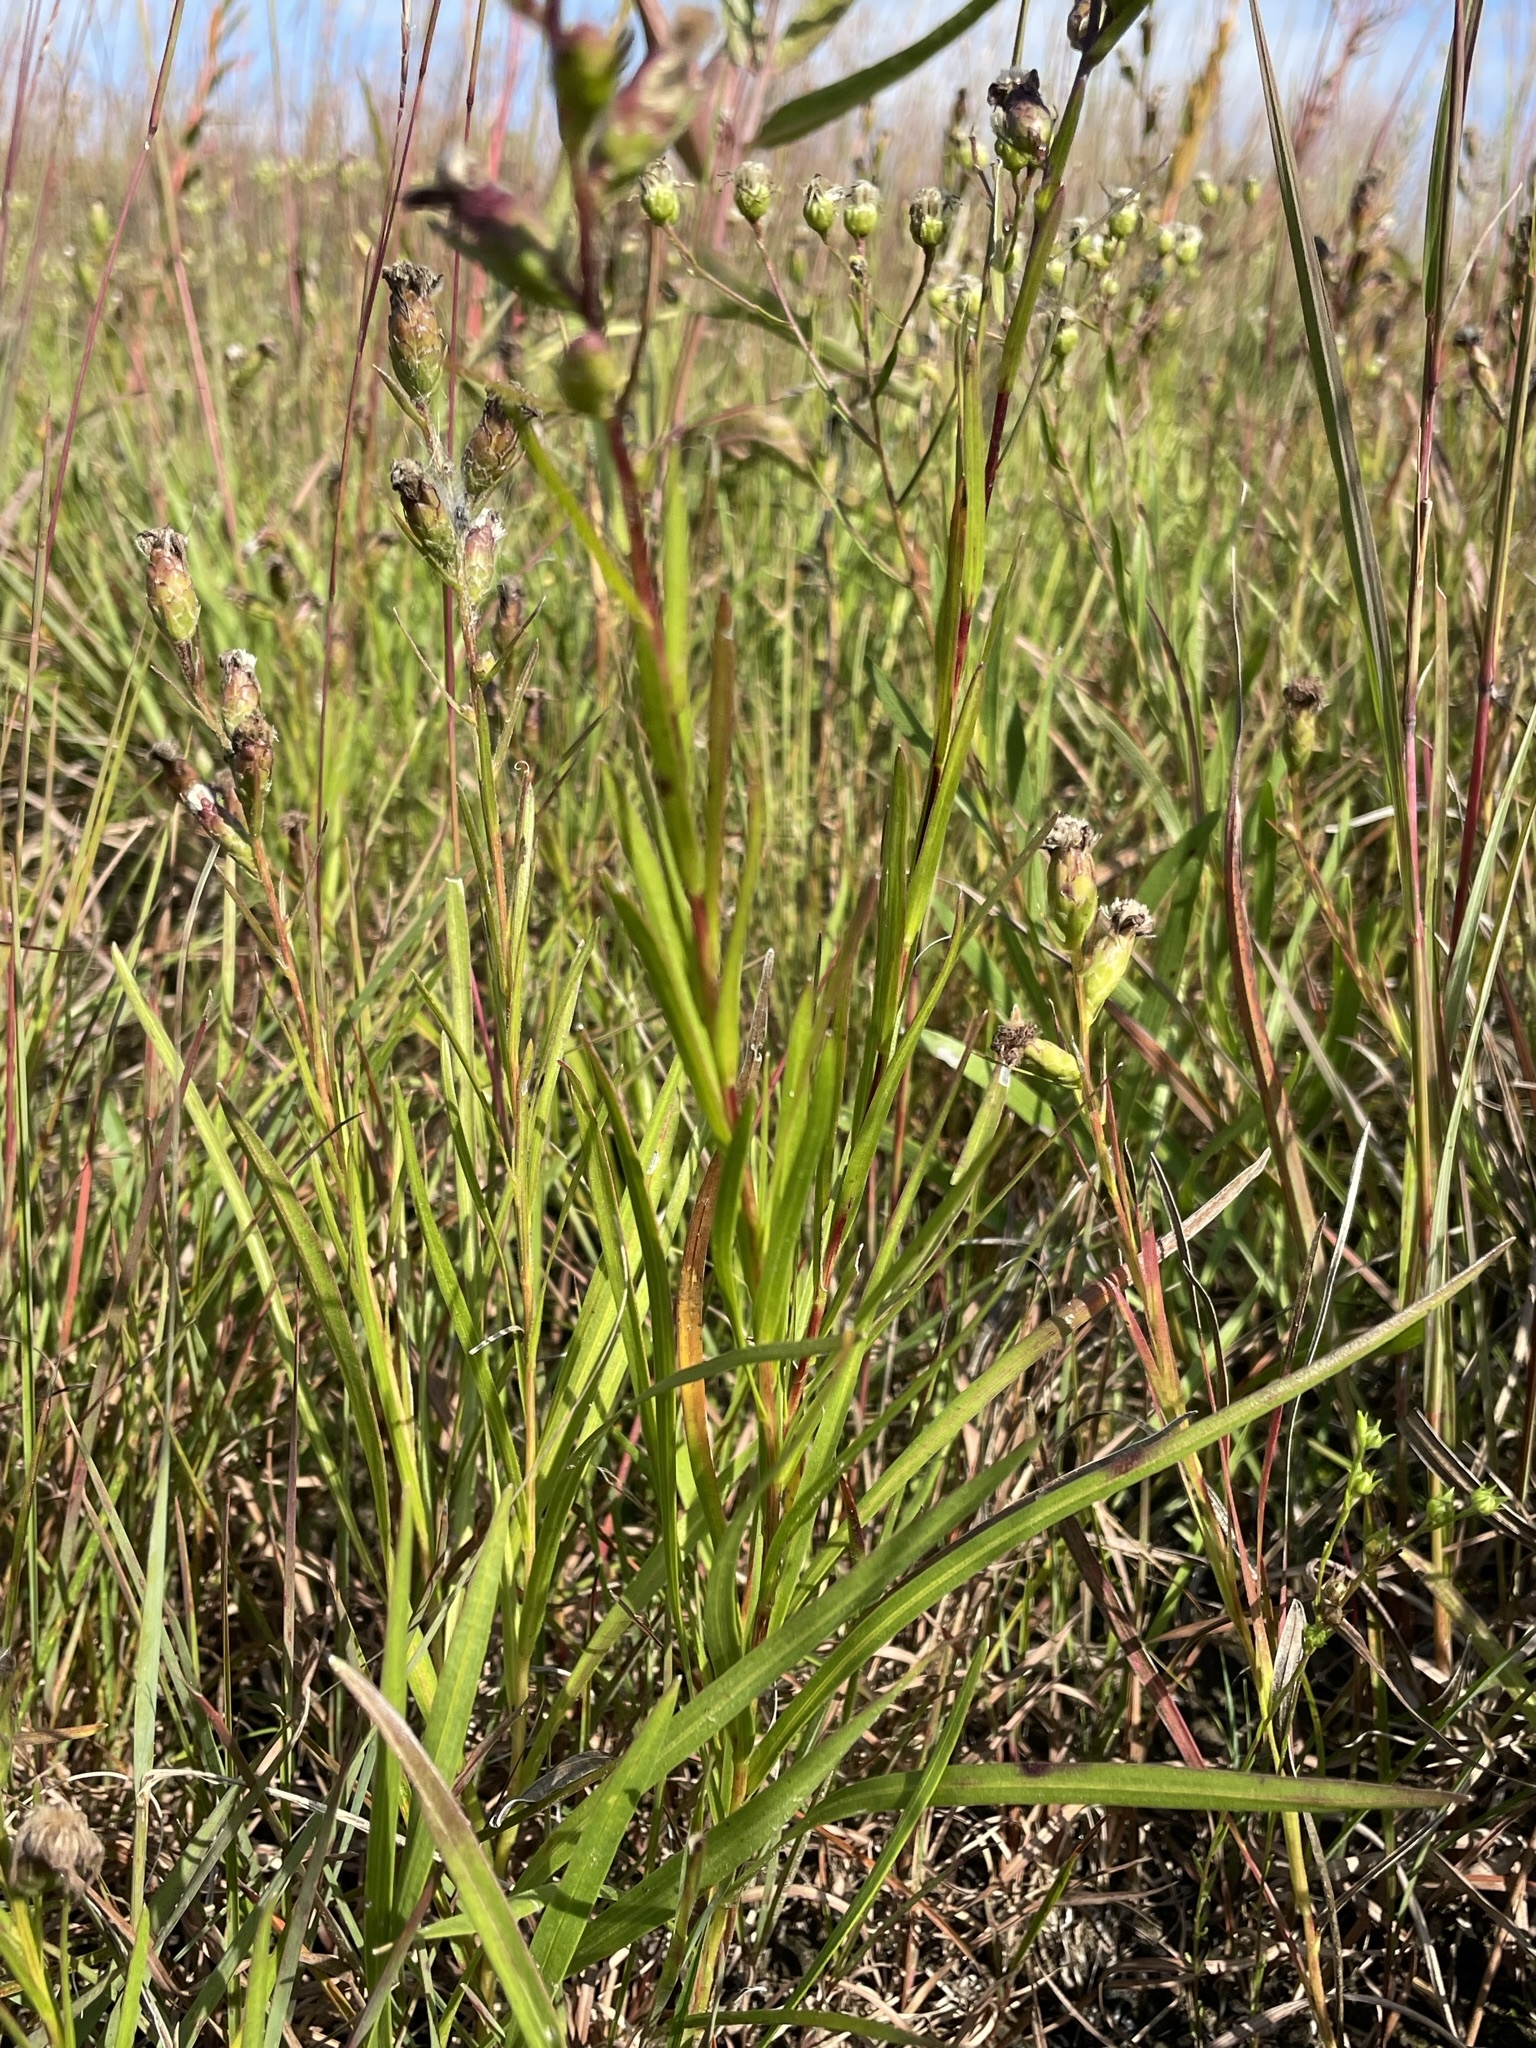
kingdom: Plantae
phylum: Tracheophyta
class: Magnoliopsida
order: Asterales
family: Asteraceae
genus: Liatris
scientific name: Liatris cylindracea
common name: Few-head blazingstar
